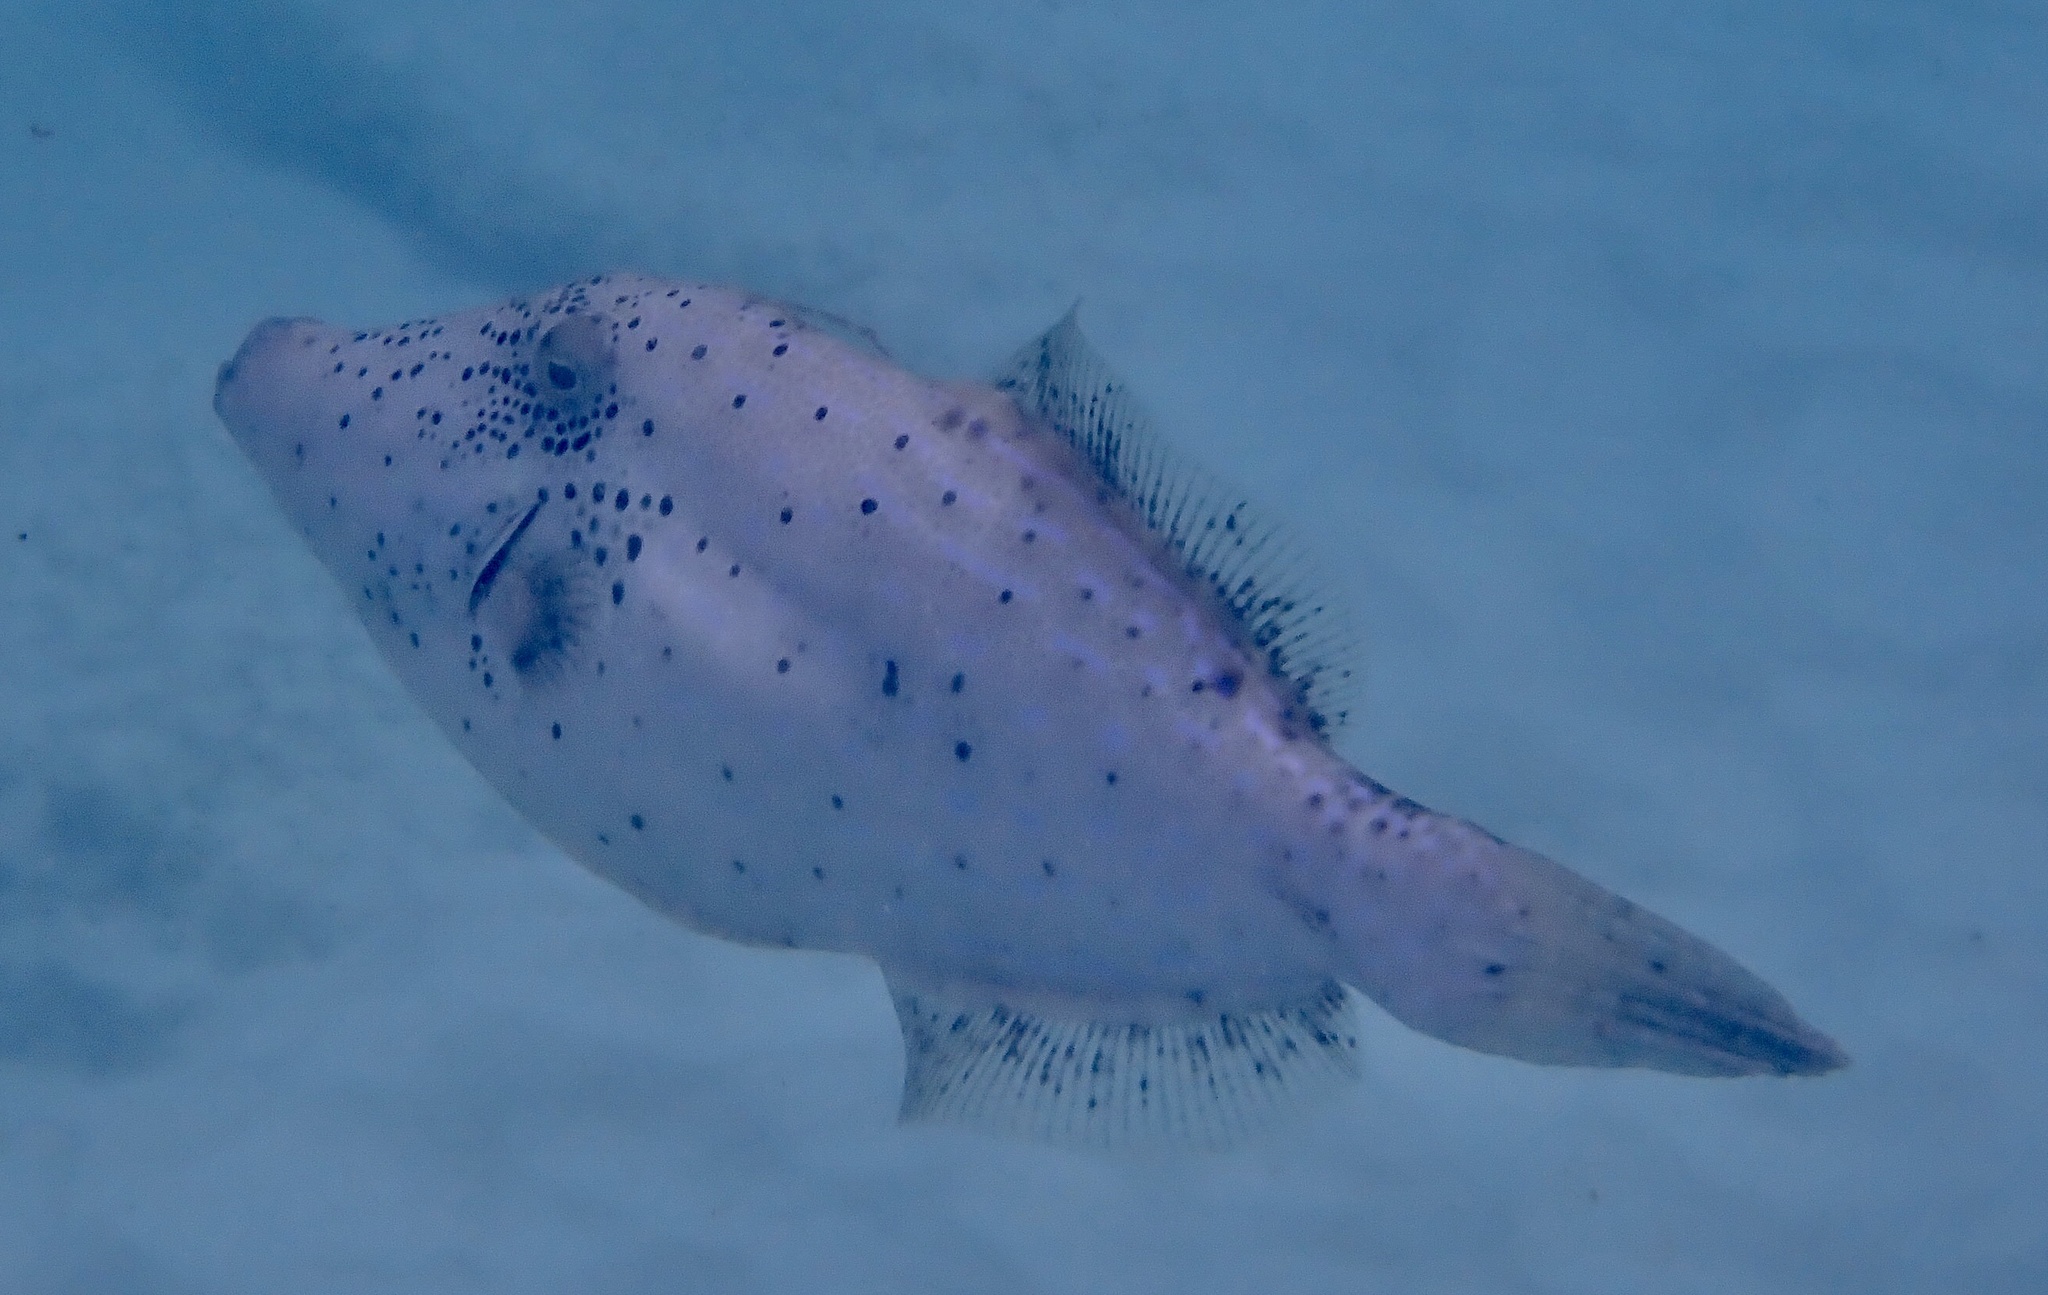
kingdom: Animalia
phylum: Chordata
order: Tetraodontiformes
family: Monacanthidae
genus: Aluterus
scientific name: Aluterus scriptus
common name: Scribbled leatherjacket filefish
